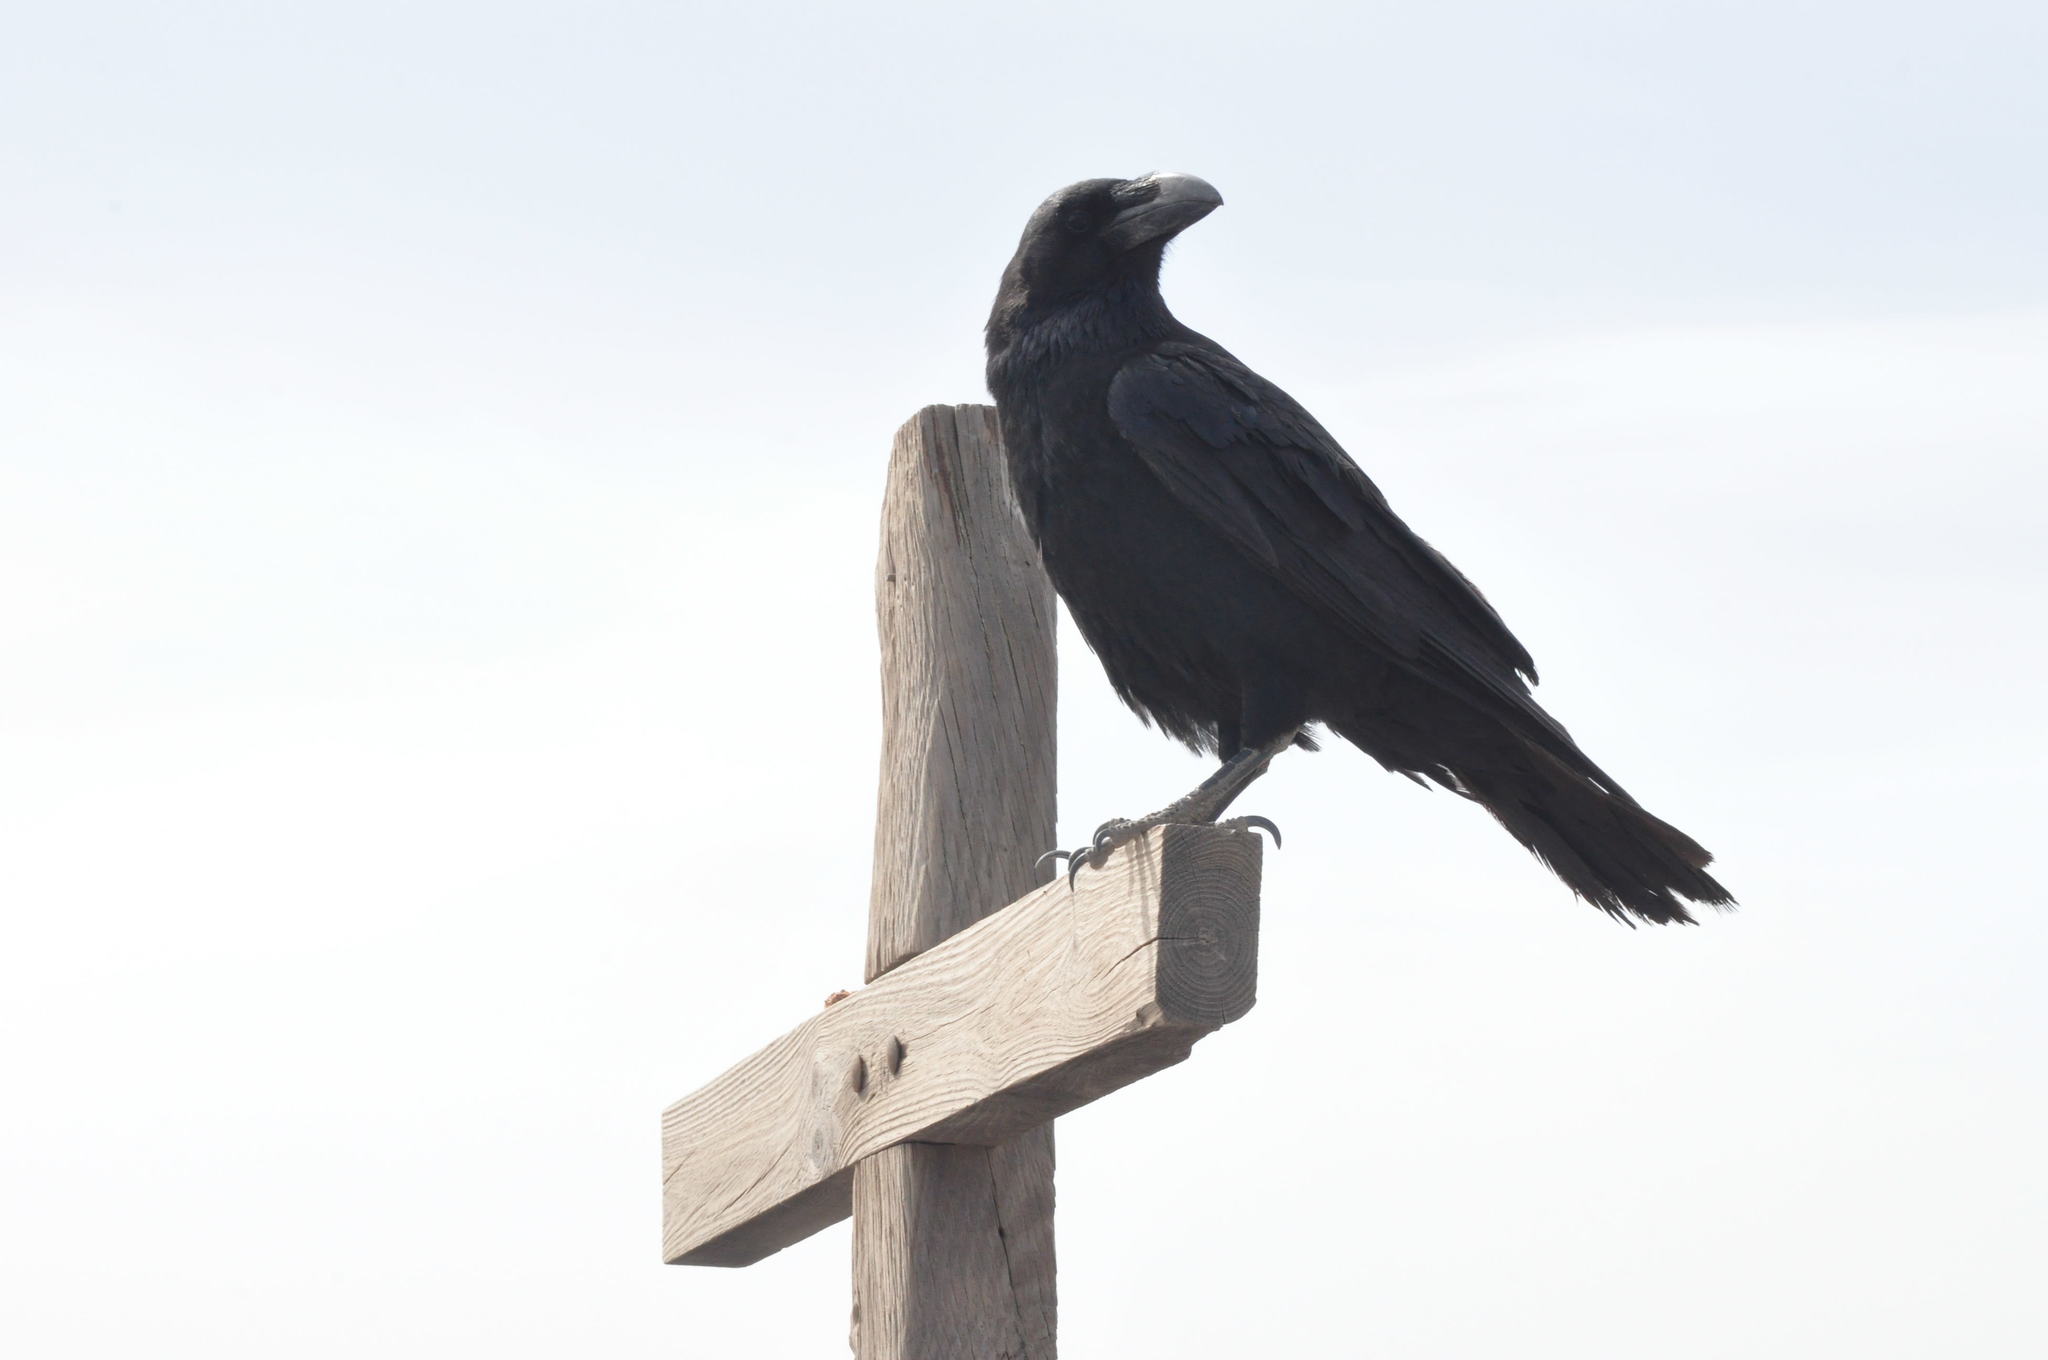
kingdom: Animalia
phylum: Chordata
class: Aves
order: Passeriformes
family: Corvidae
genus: Corvus
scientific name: Corvus corax
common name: Common raven
